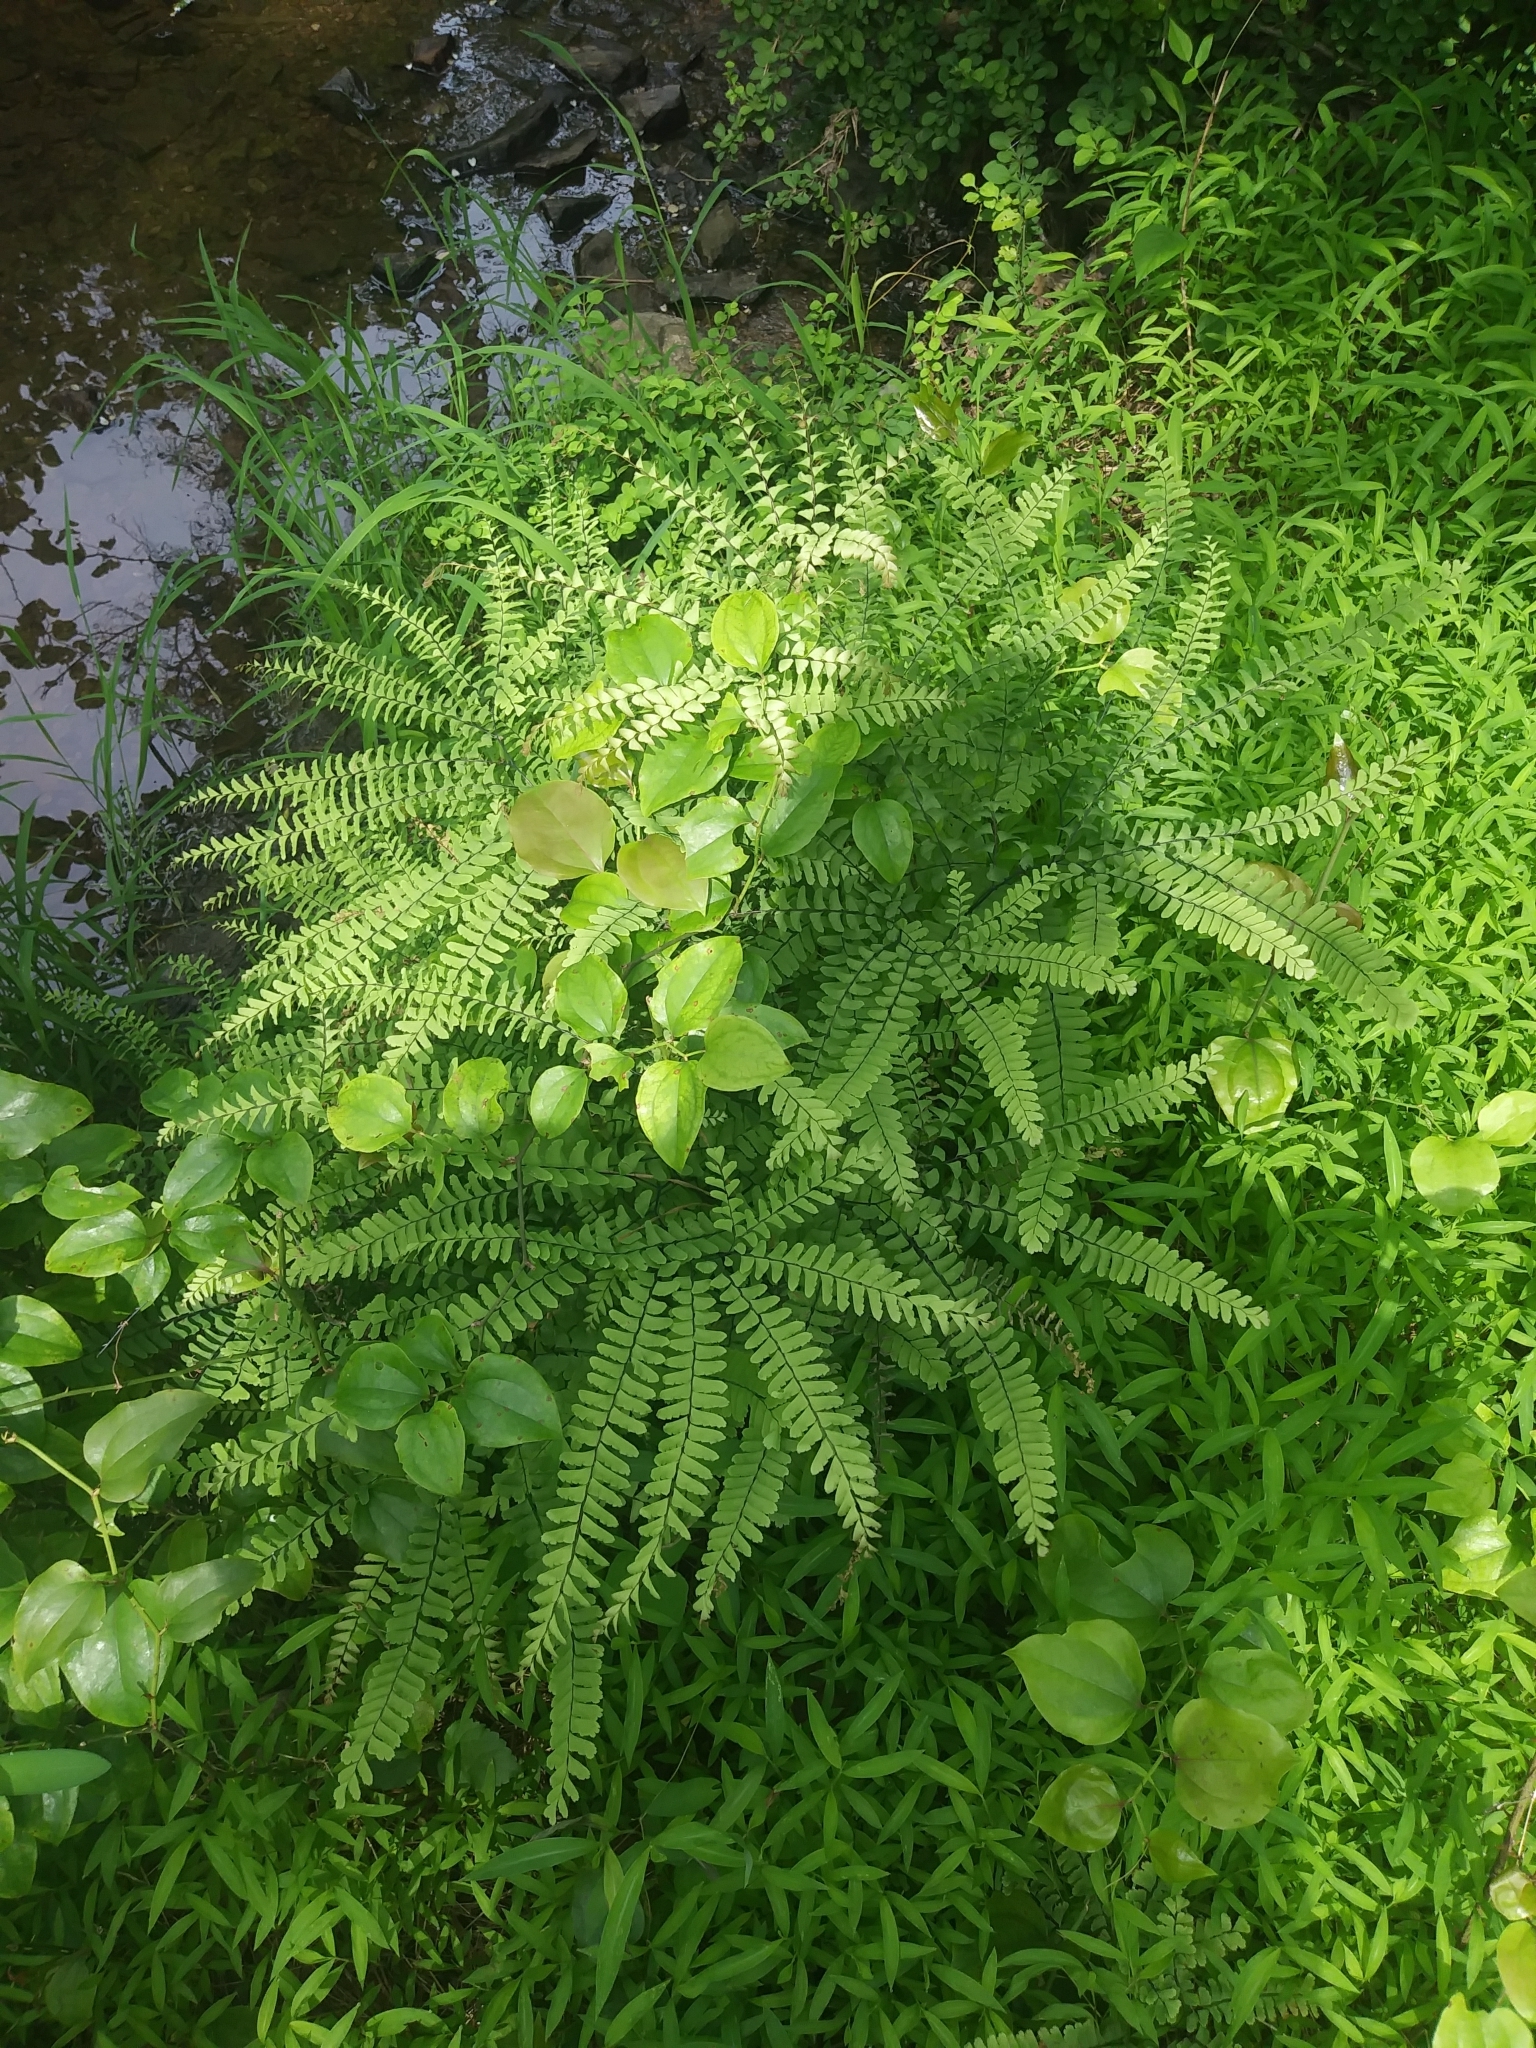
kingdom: Plantae
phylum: Tracheophyta
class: Polypodiopsida
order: Polypodiales
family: Pteridaceae
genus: Adiantum
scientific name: Adiantum pedatum
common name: Five-finger fern
